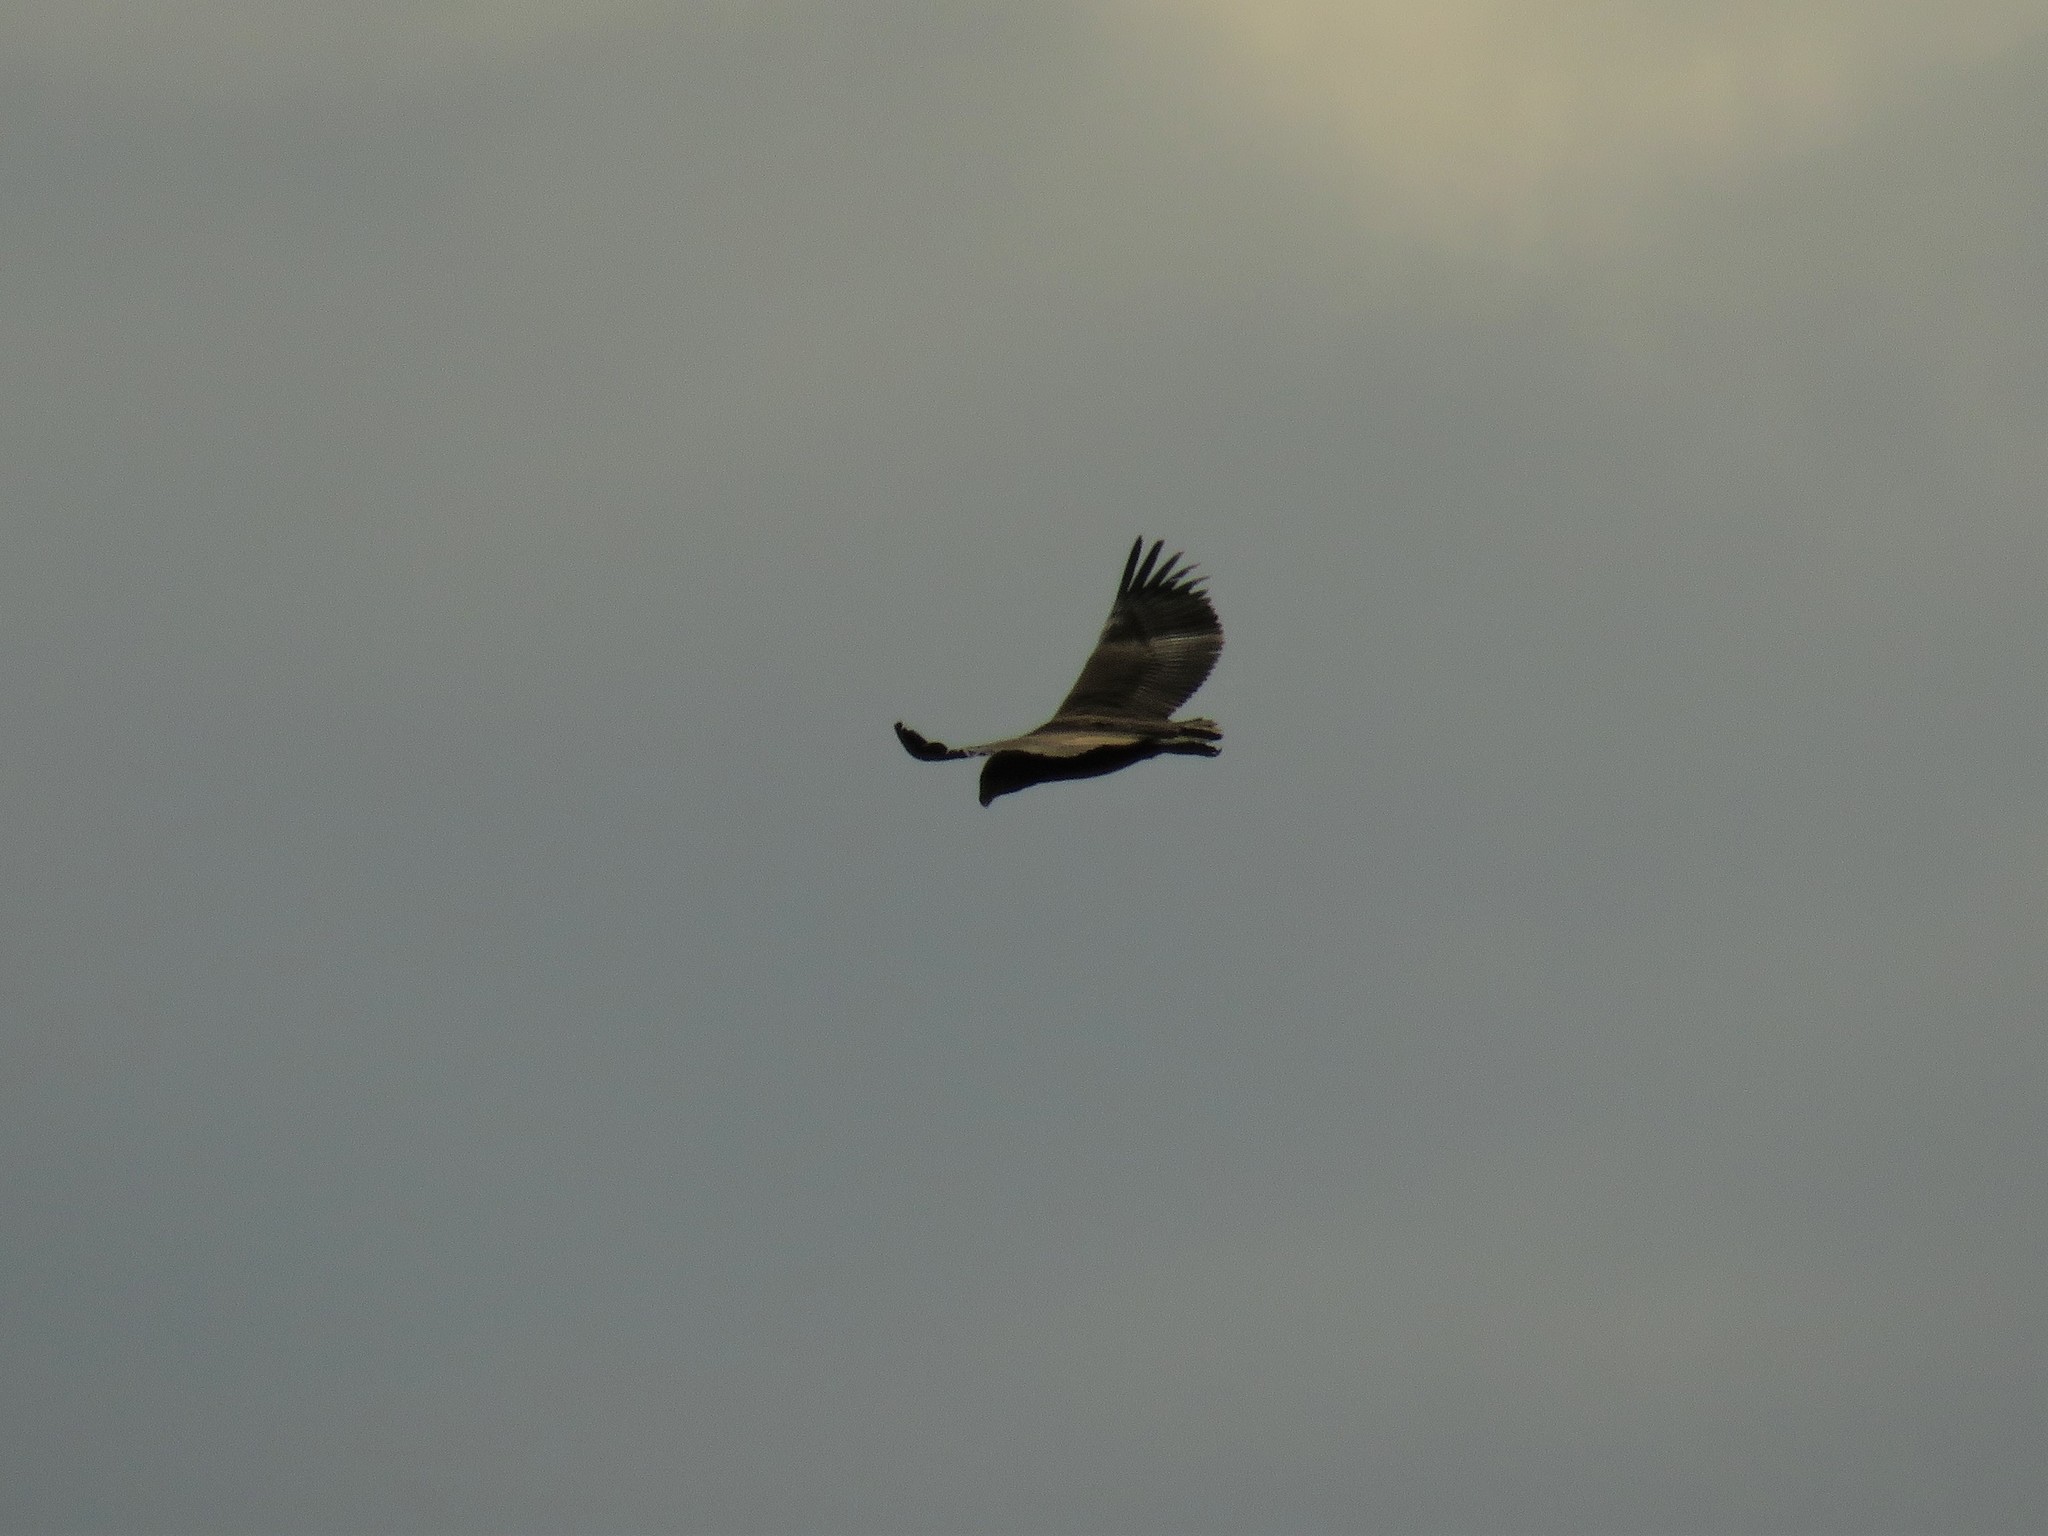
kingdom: Animalia
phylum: Chordata
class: Aves
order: Accipitriformes
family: Accipitridae
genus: Terathopius
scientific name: Terathopius ecaudatus
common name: Bateleur
